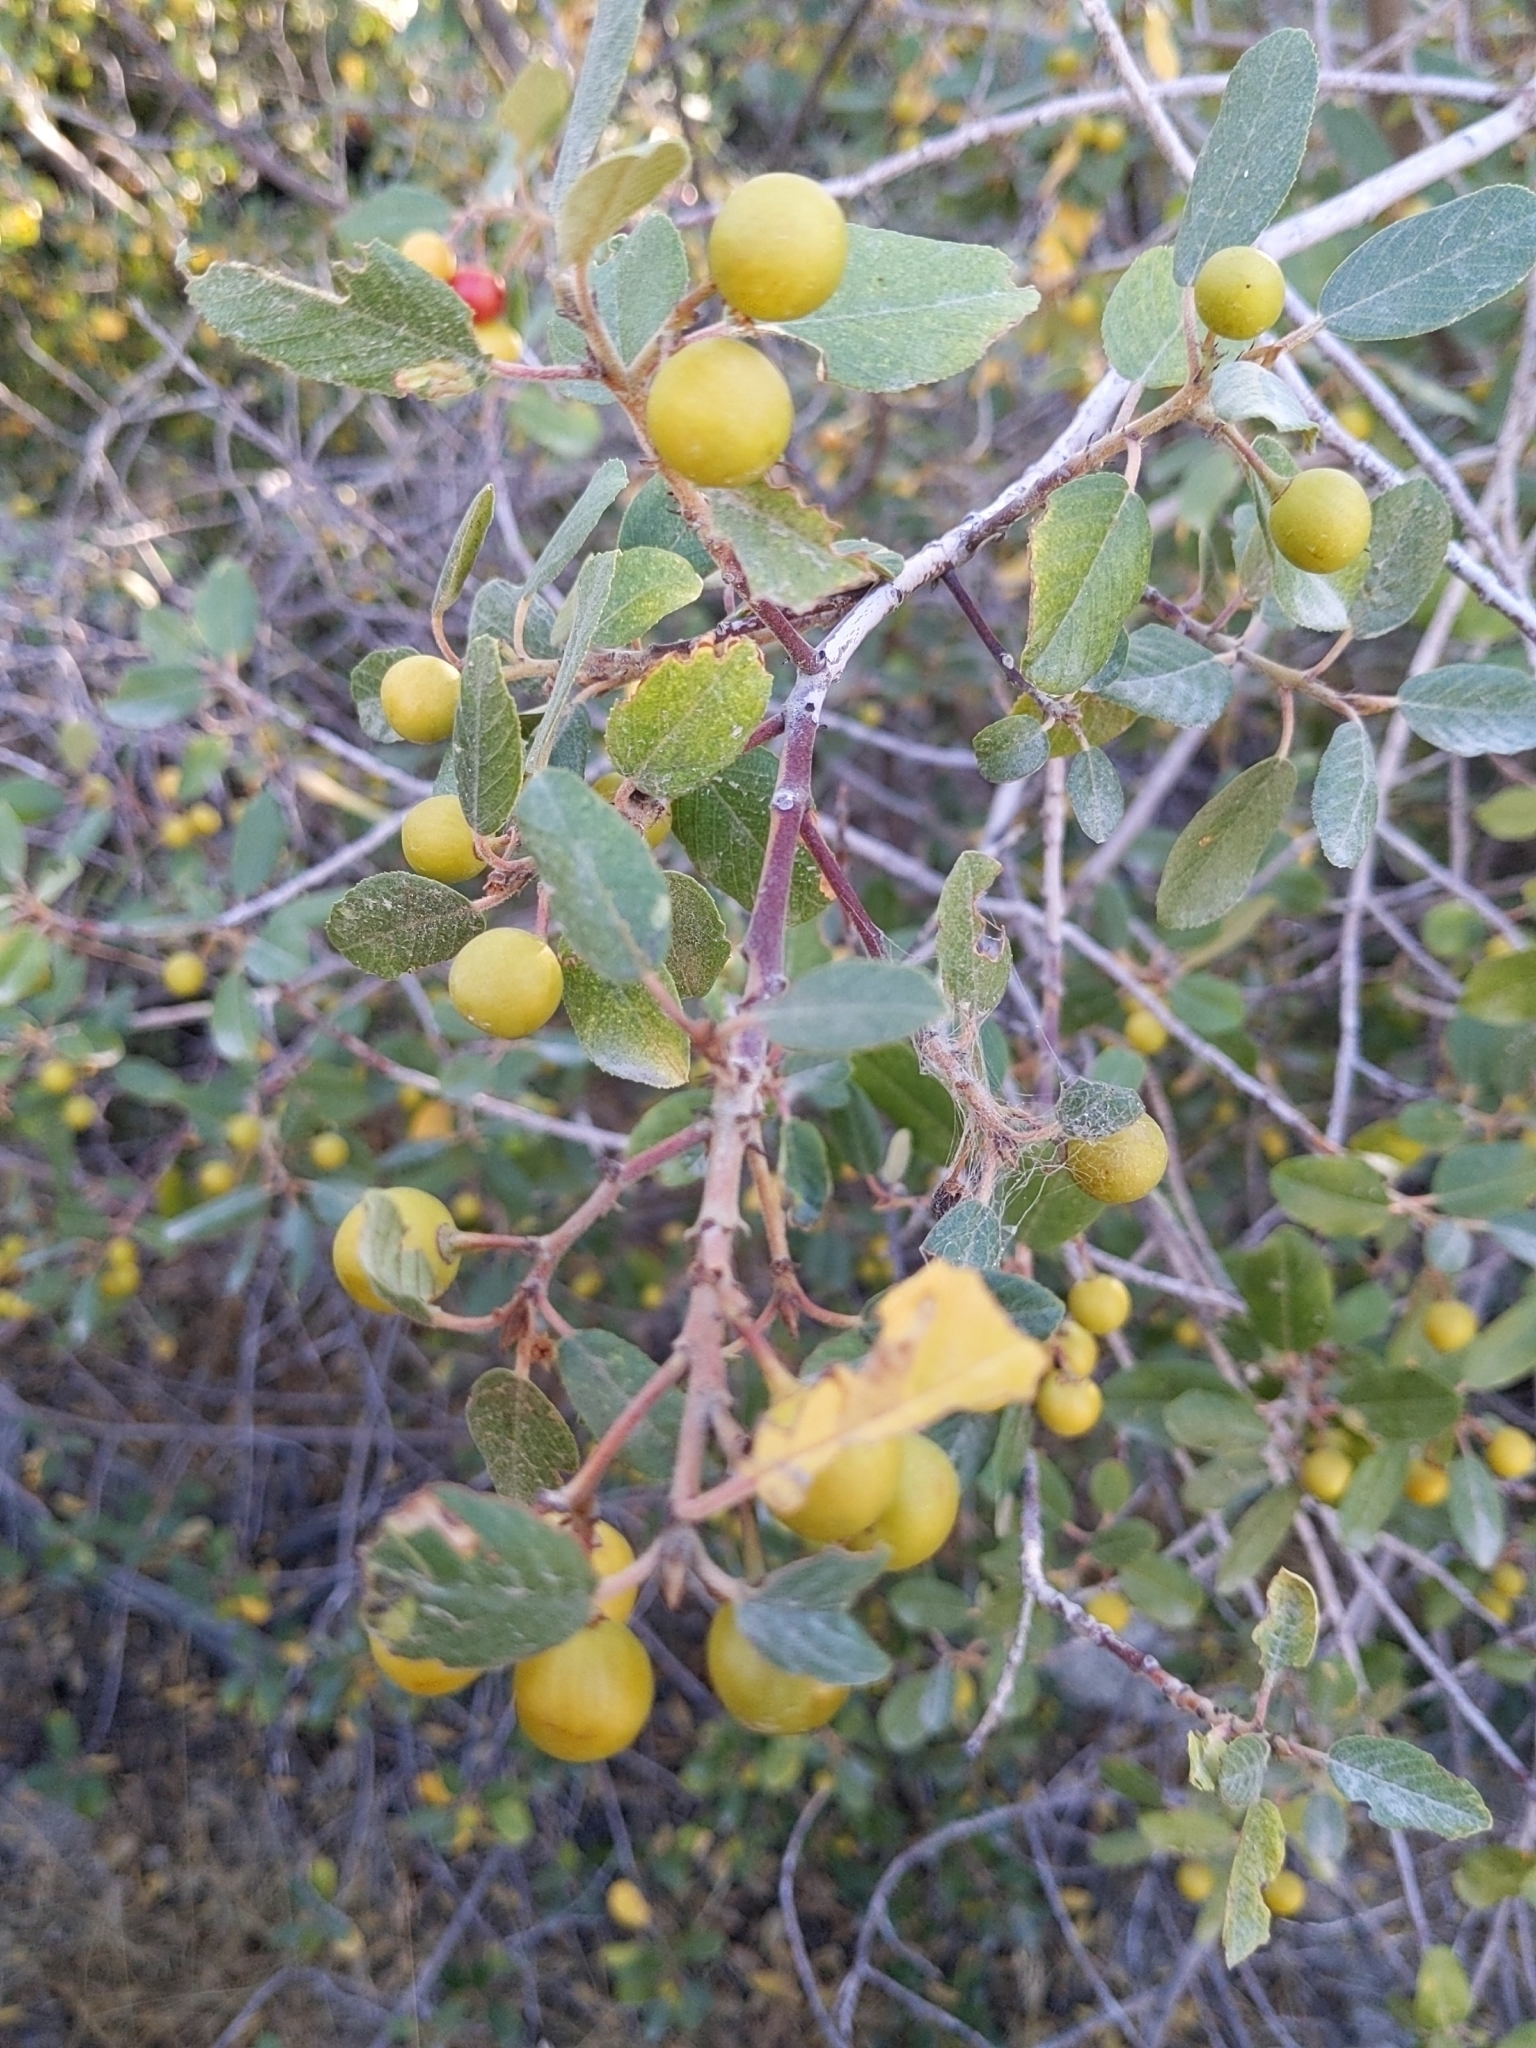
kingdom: Plantae
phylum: Tracheophyta
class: Magnoliopsida
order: Rosales
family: Rhamnaceae
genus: Frangula
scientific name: Frangula californica
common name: California buckthorn
